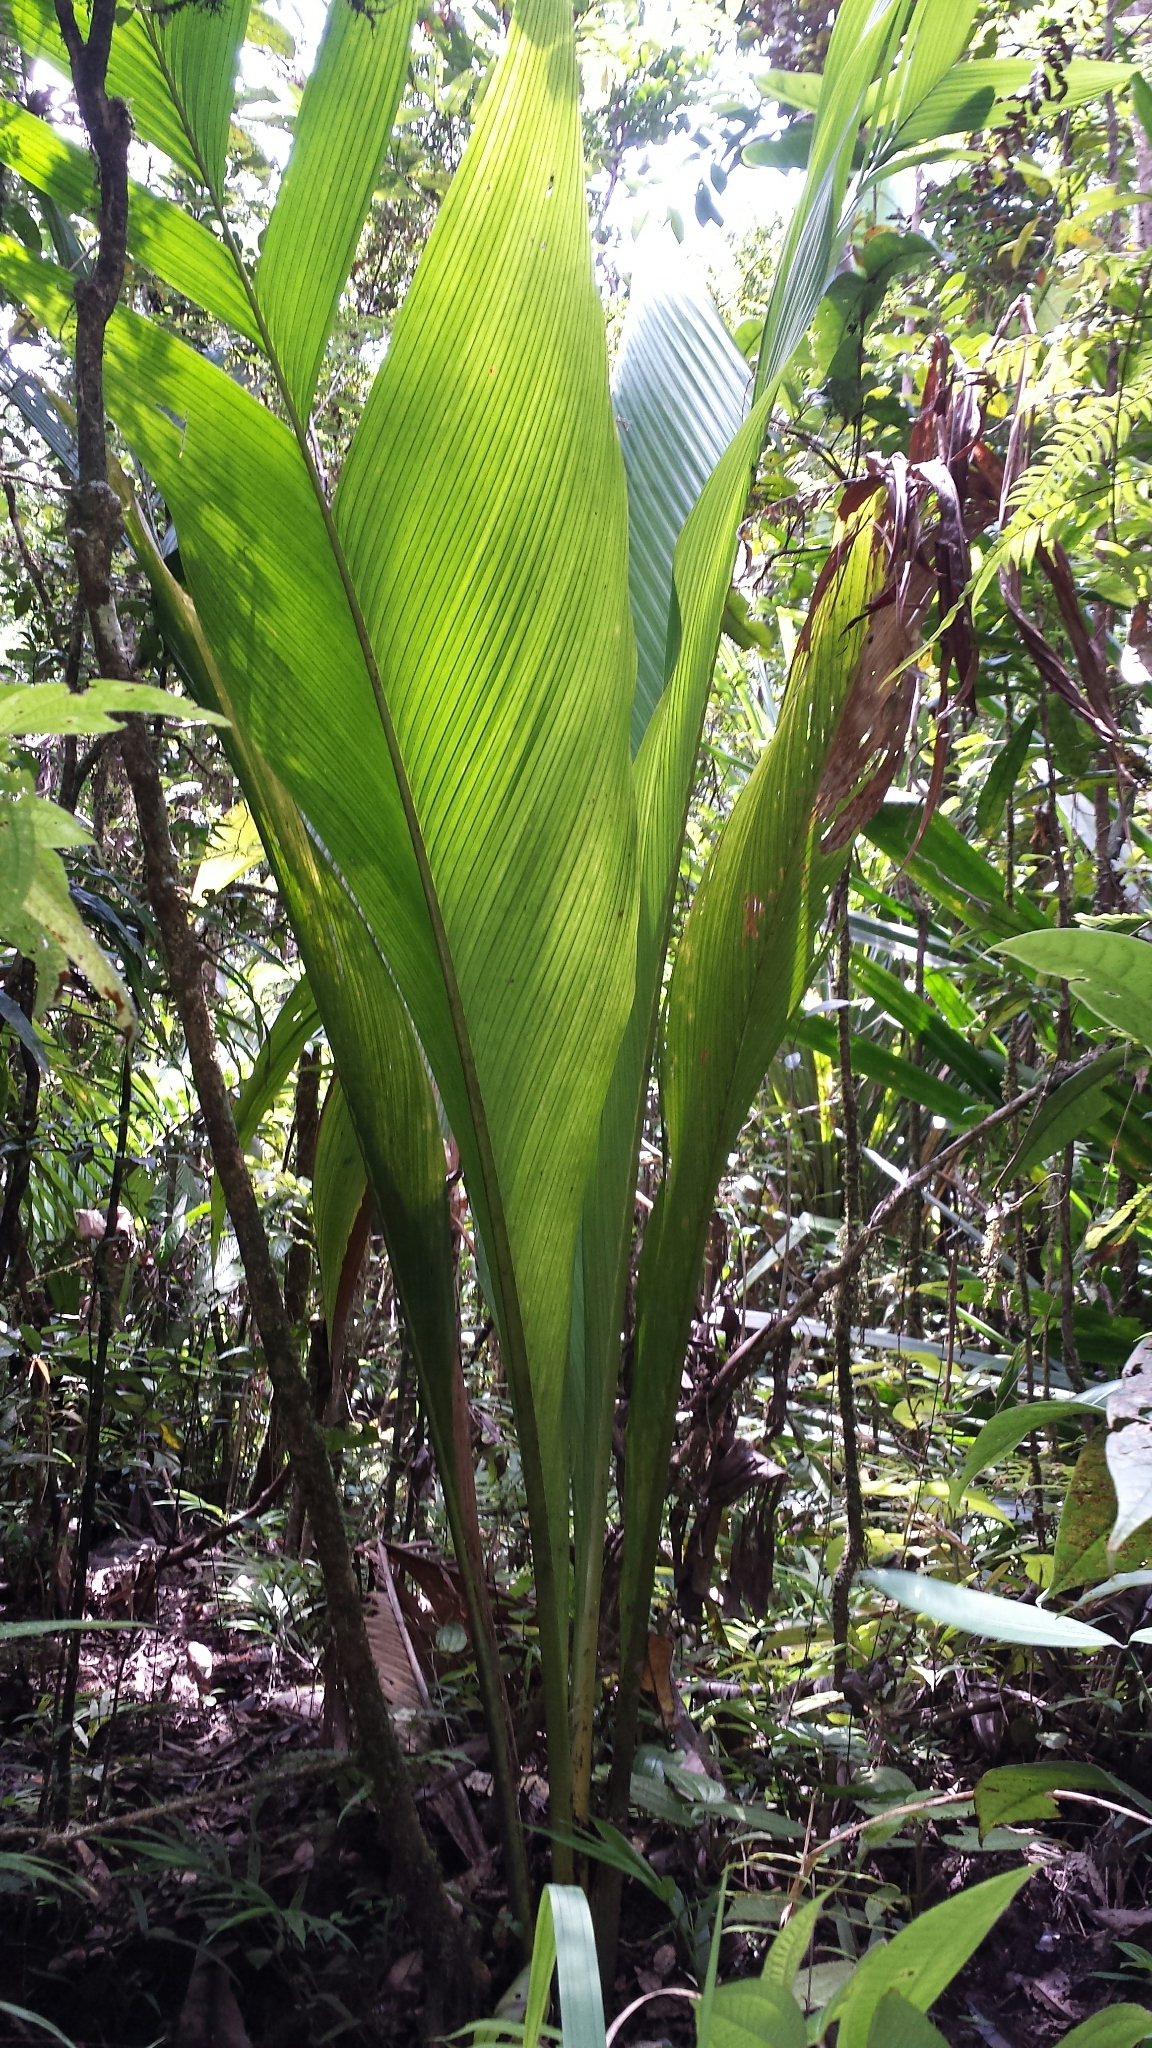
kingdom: Plantae
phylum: Tracheophyta
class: Liliopsida
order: Arecales
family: Arecaceae
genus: Marojejya
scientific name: Marojejya darianii
